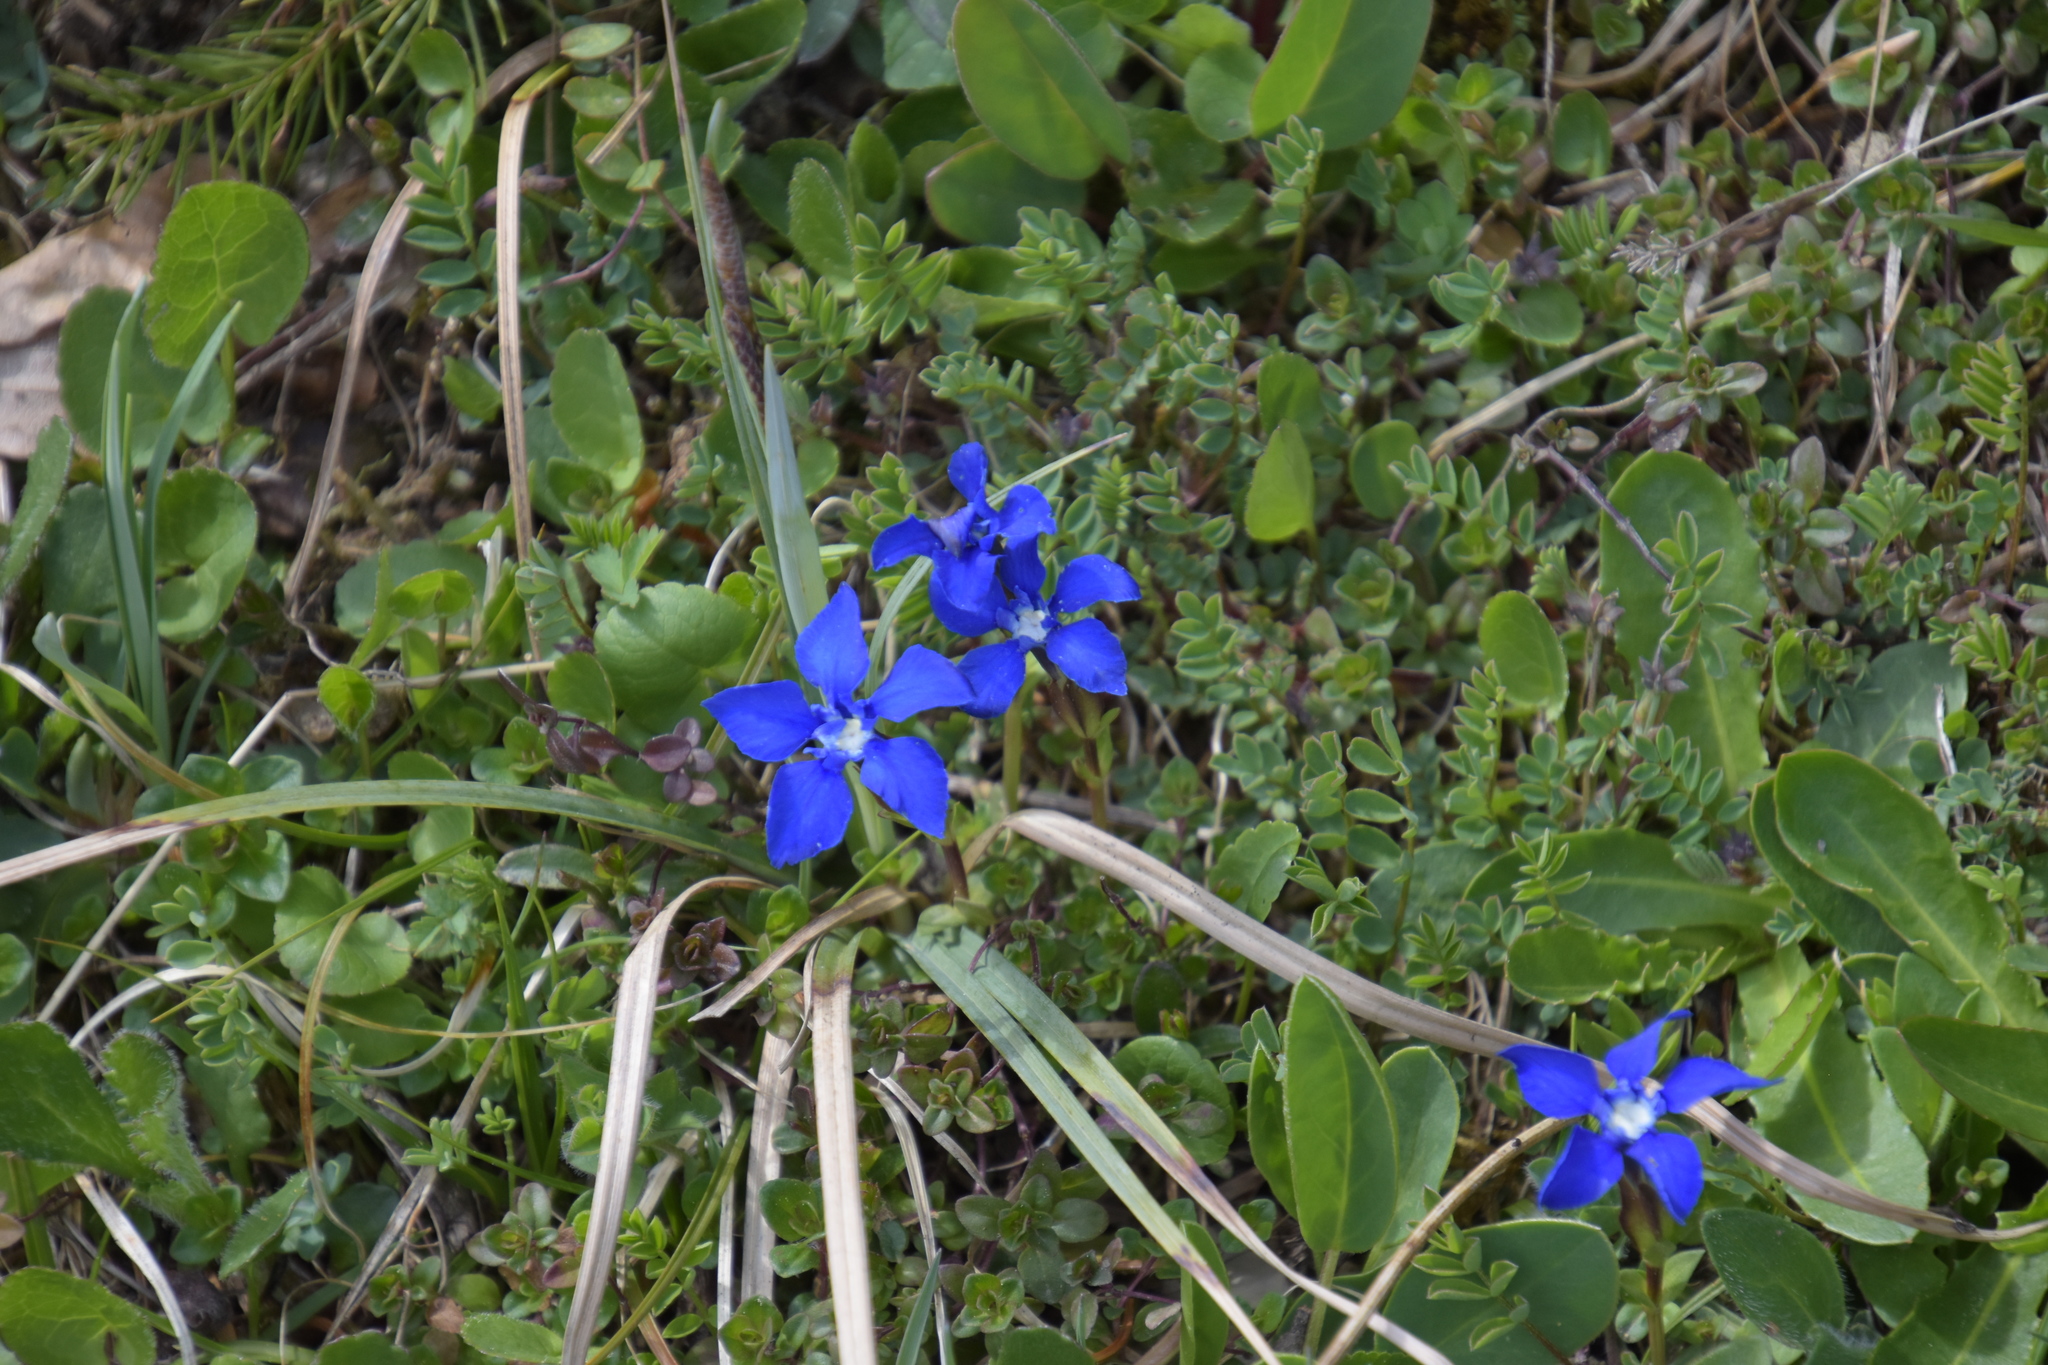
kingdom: Plantae
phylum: Tracheophyta
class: Magnoliopsida
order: Gentianales
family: Gentianaceae
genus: Gentiana
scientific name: Gentiana verna
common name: Spring gentian
